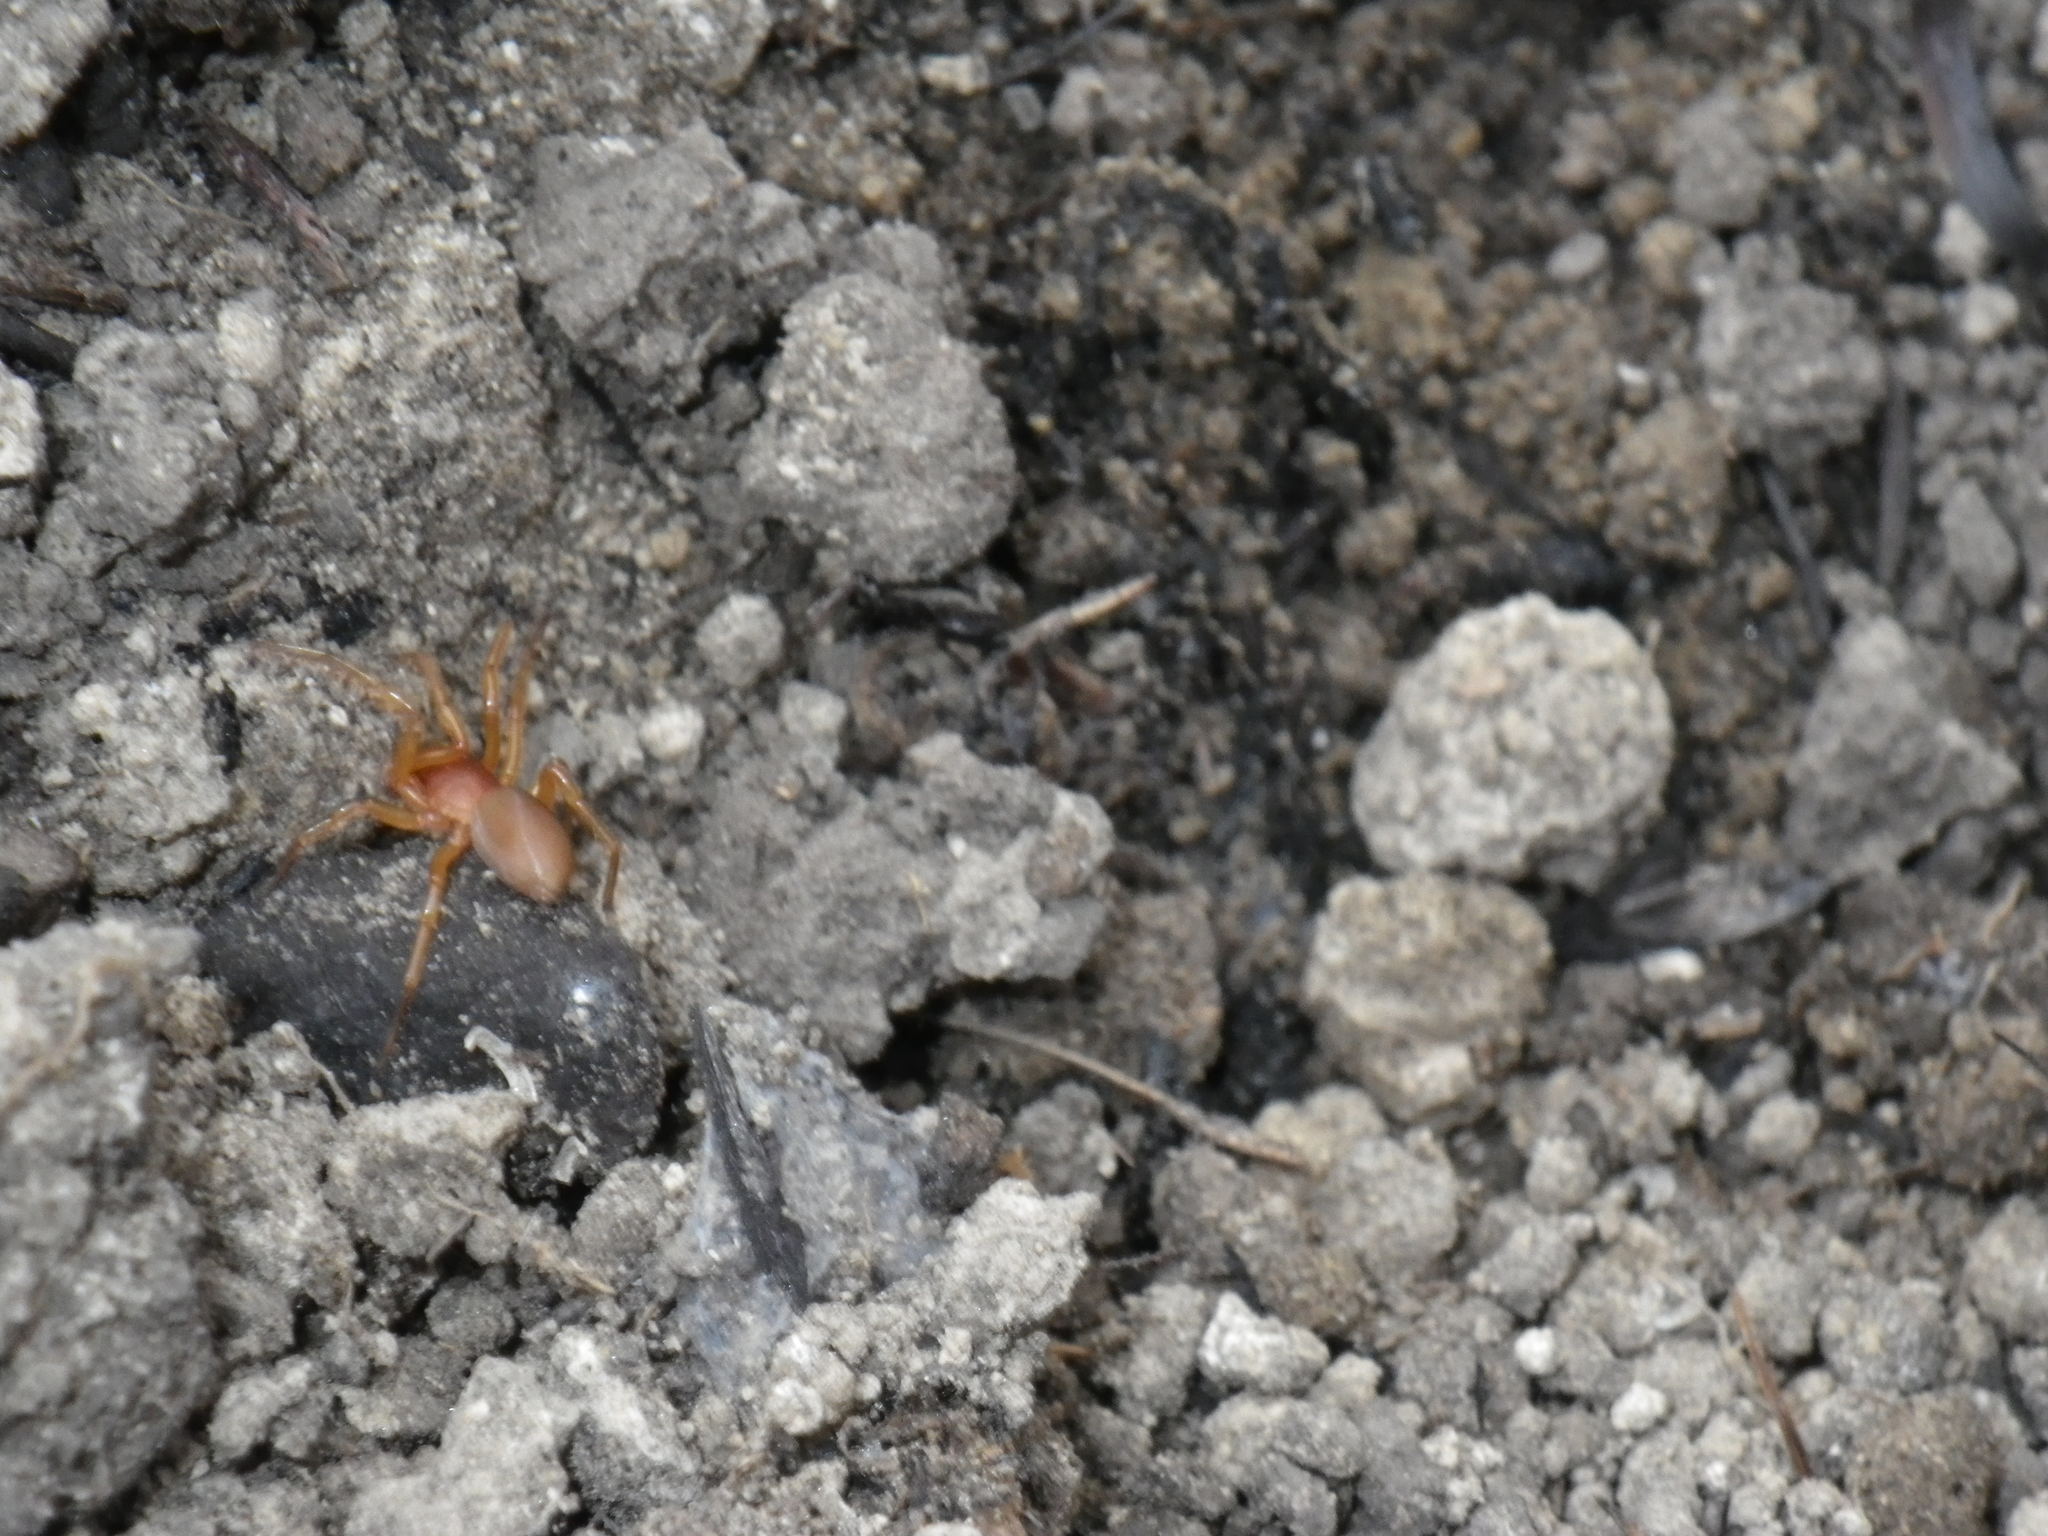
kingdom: Animalia
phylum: Arthropoda
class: Arachnida
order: Araneae
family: Dysderidae
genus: Dysdera
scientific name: Dysdera crocata
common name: Woodlouse spider
